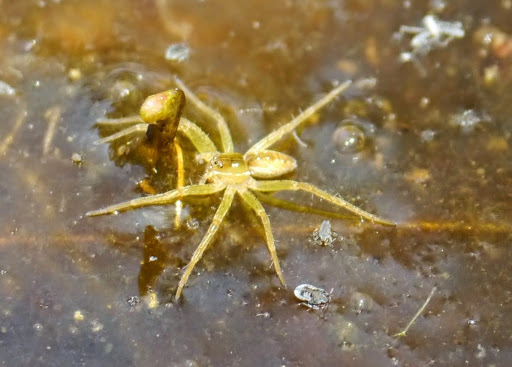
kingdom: Animalia
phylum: Arthropoda
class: Arachnida
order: Araneae
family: Pisauridae
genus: Dolomedes
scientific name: Dolomedes triton
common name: Six-spotted fishing spider
